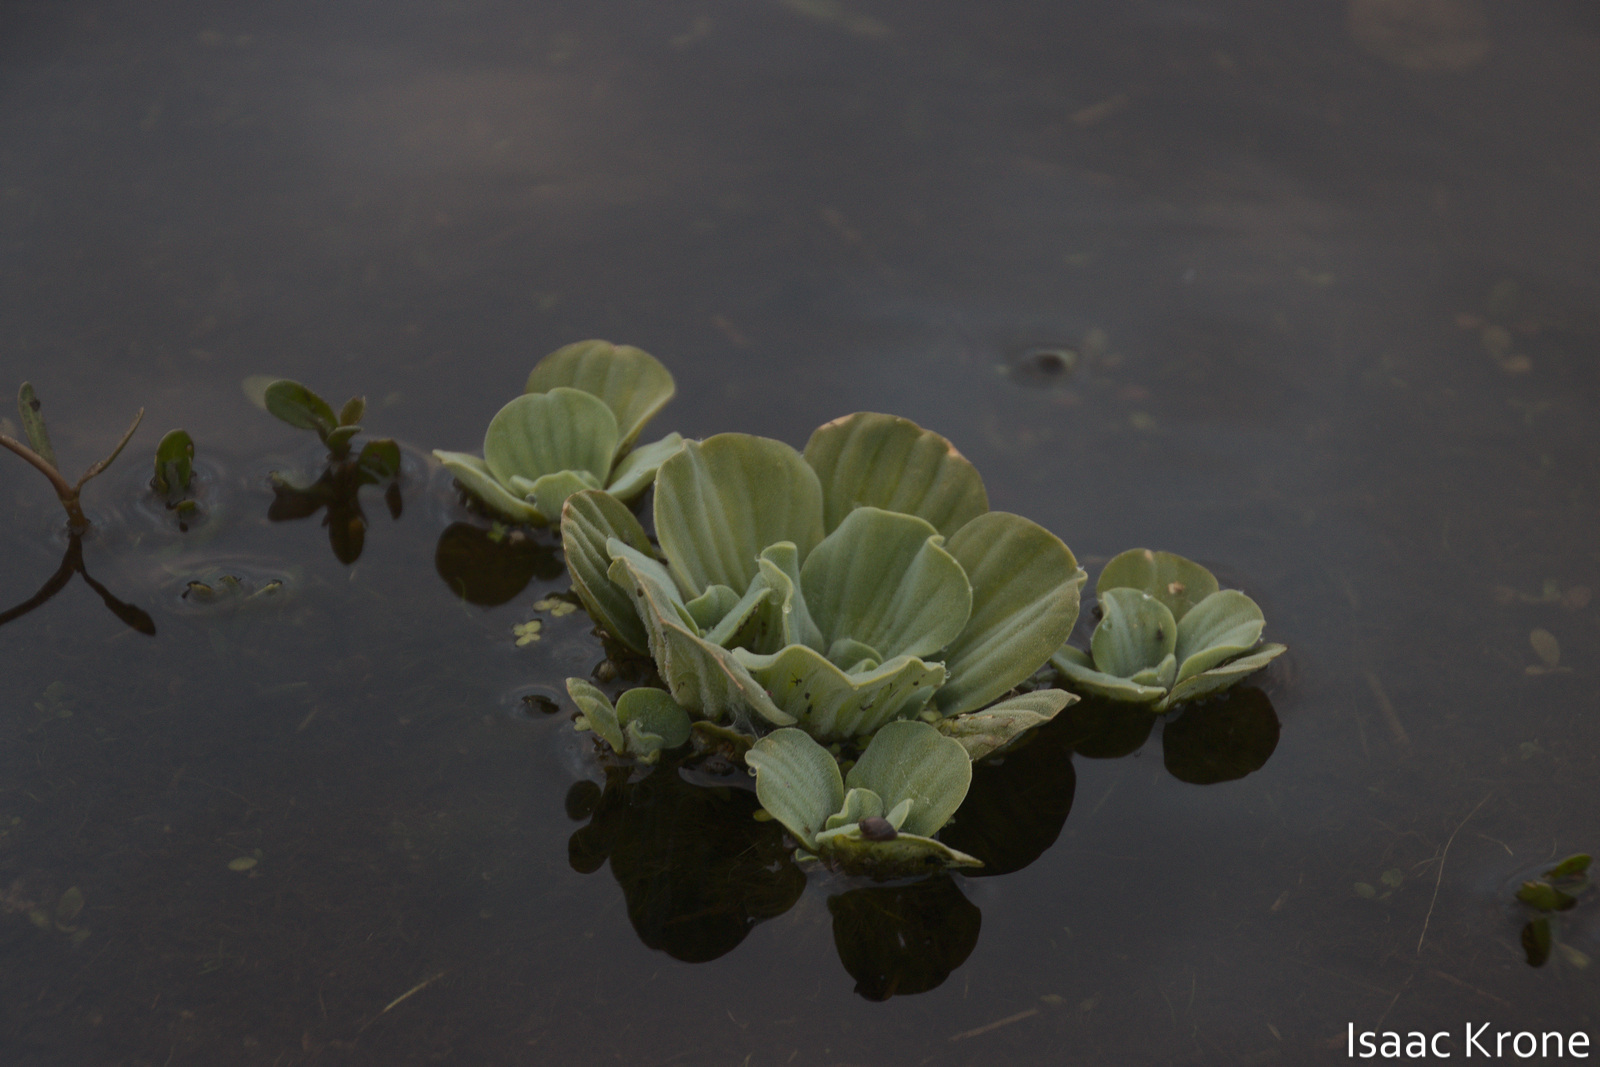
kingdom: Plantae
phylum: Tracheophyta
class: Liliopsida
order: Alismatales
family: Araceae
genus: Pistia
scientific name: Pistia stratiotes
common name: Water lettuce
